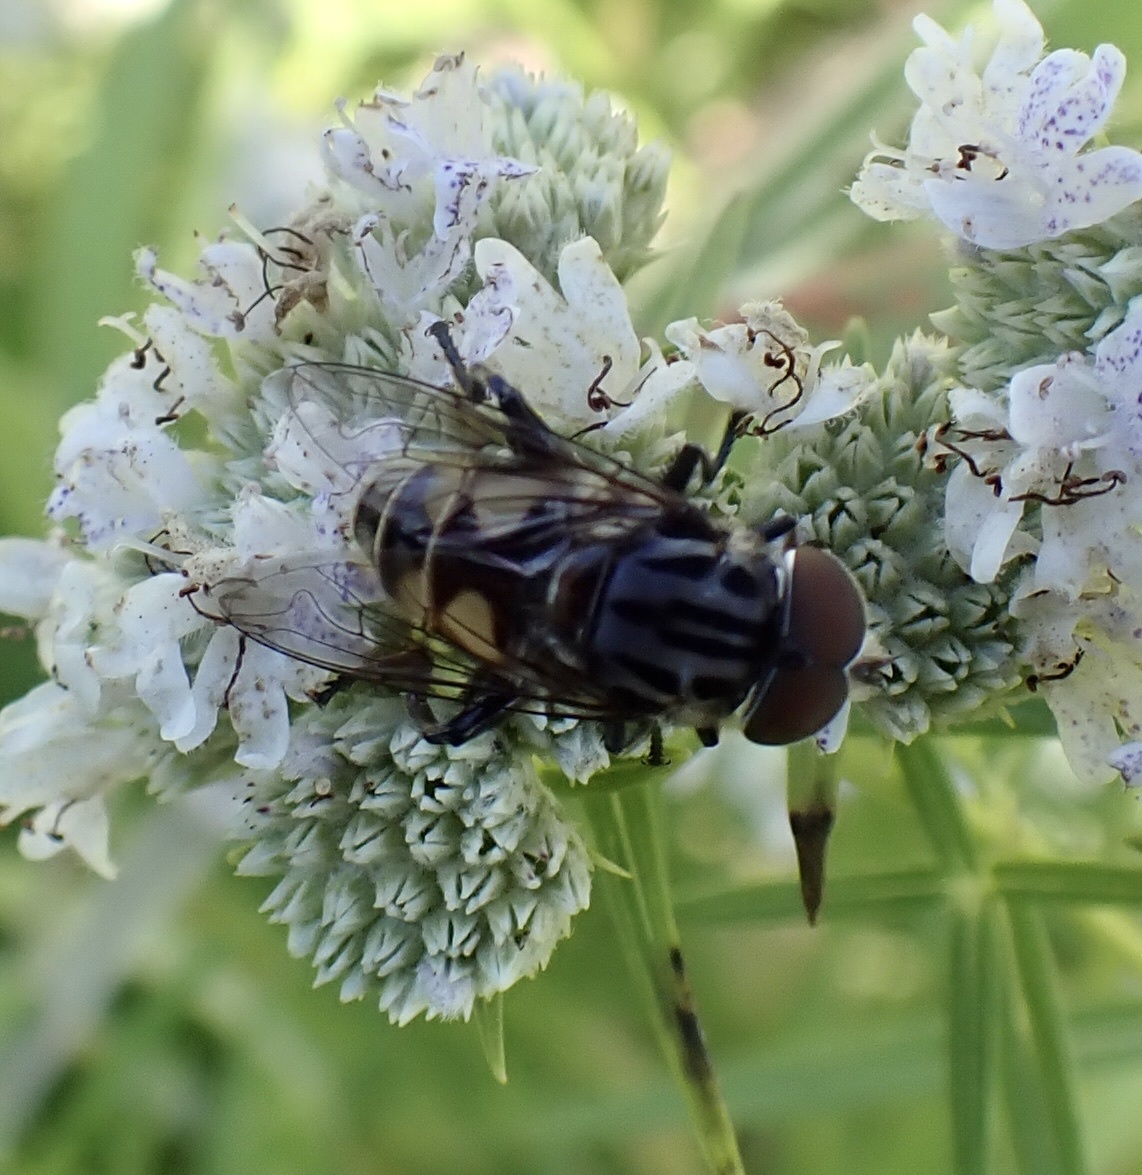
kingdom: Animalia
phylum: Arthropoda
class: Insecta
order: Diptera
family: Syrphidae
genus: Palpada
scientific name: Palpada furcata
